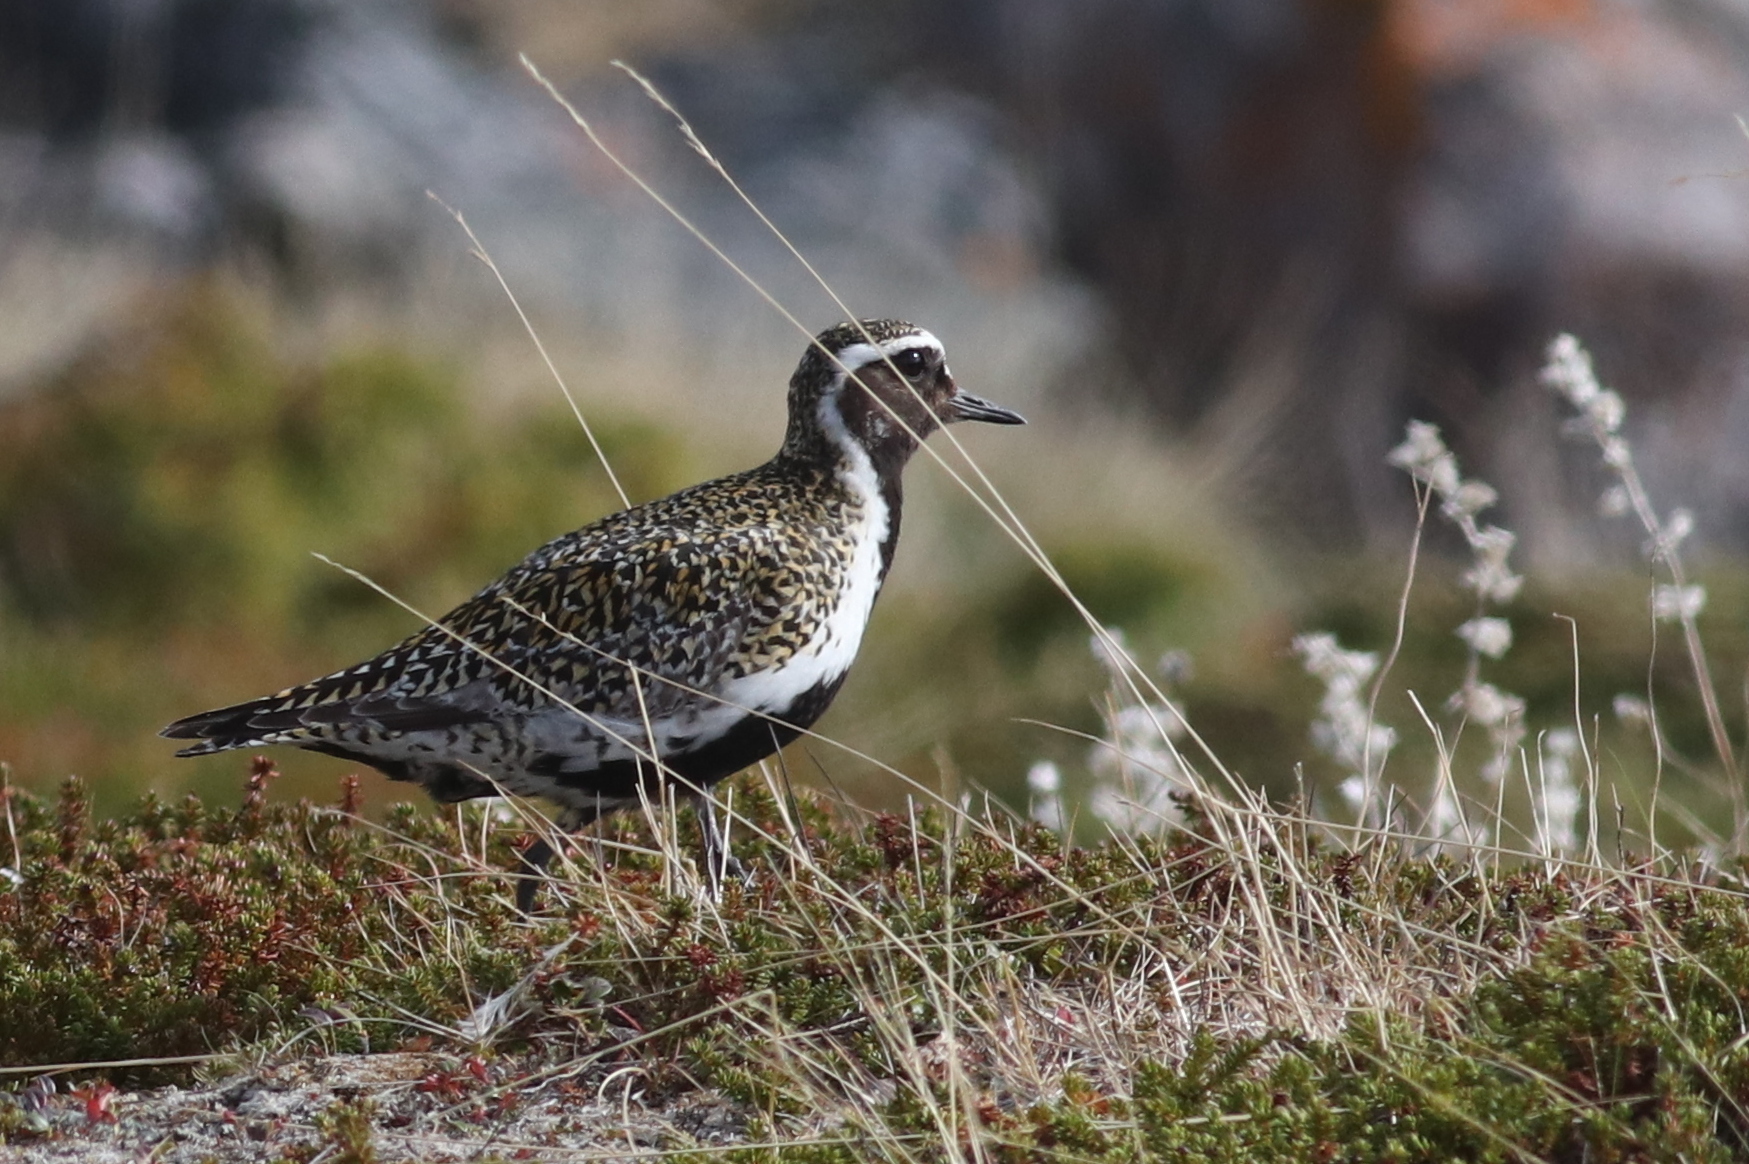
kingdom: Animalia
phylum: Chordata
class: Aves
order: Charadriiformes
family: Charadriidae
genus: Pluvialis
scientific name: Pluvialis apricaria
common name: European golden plover
